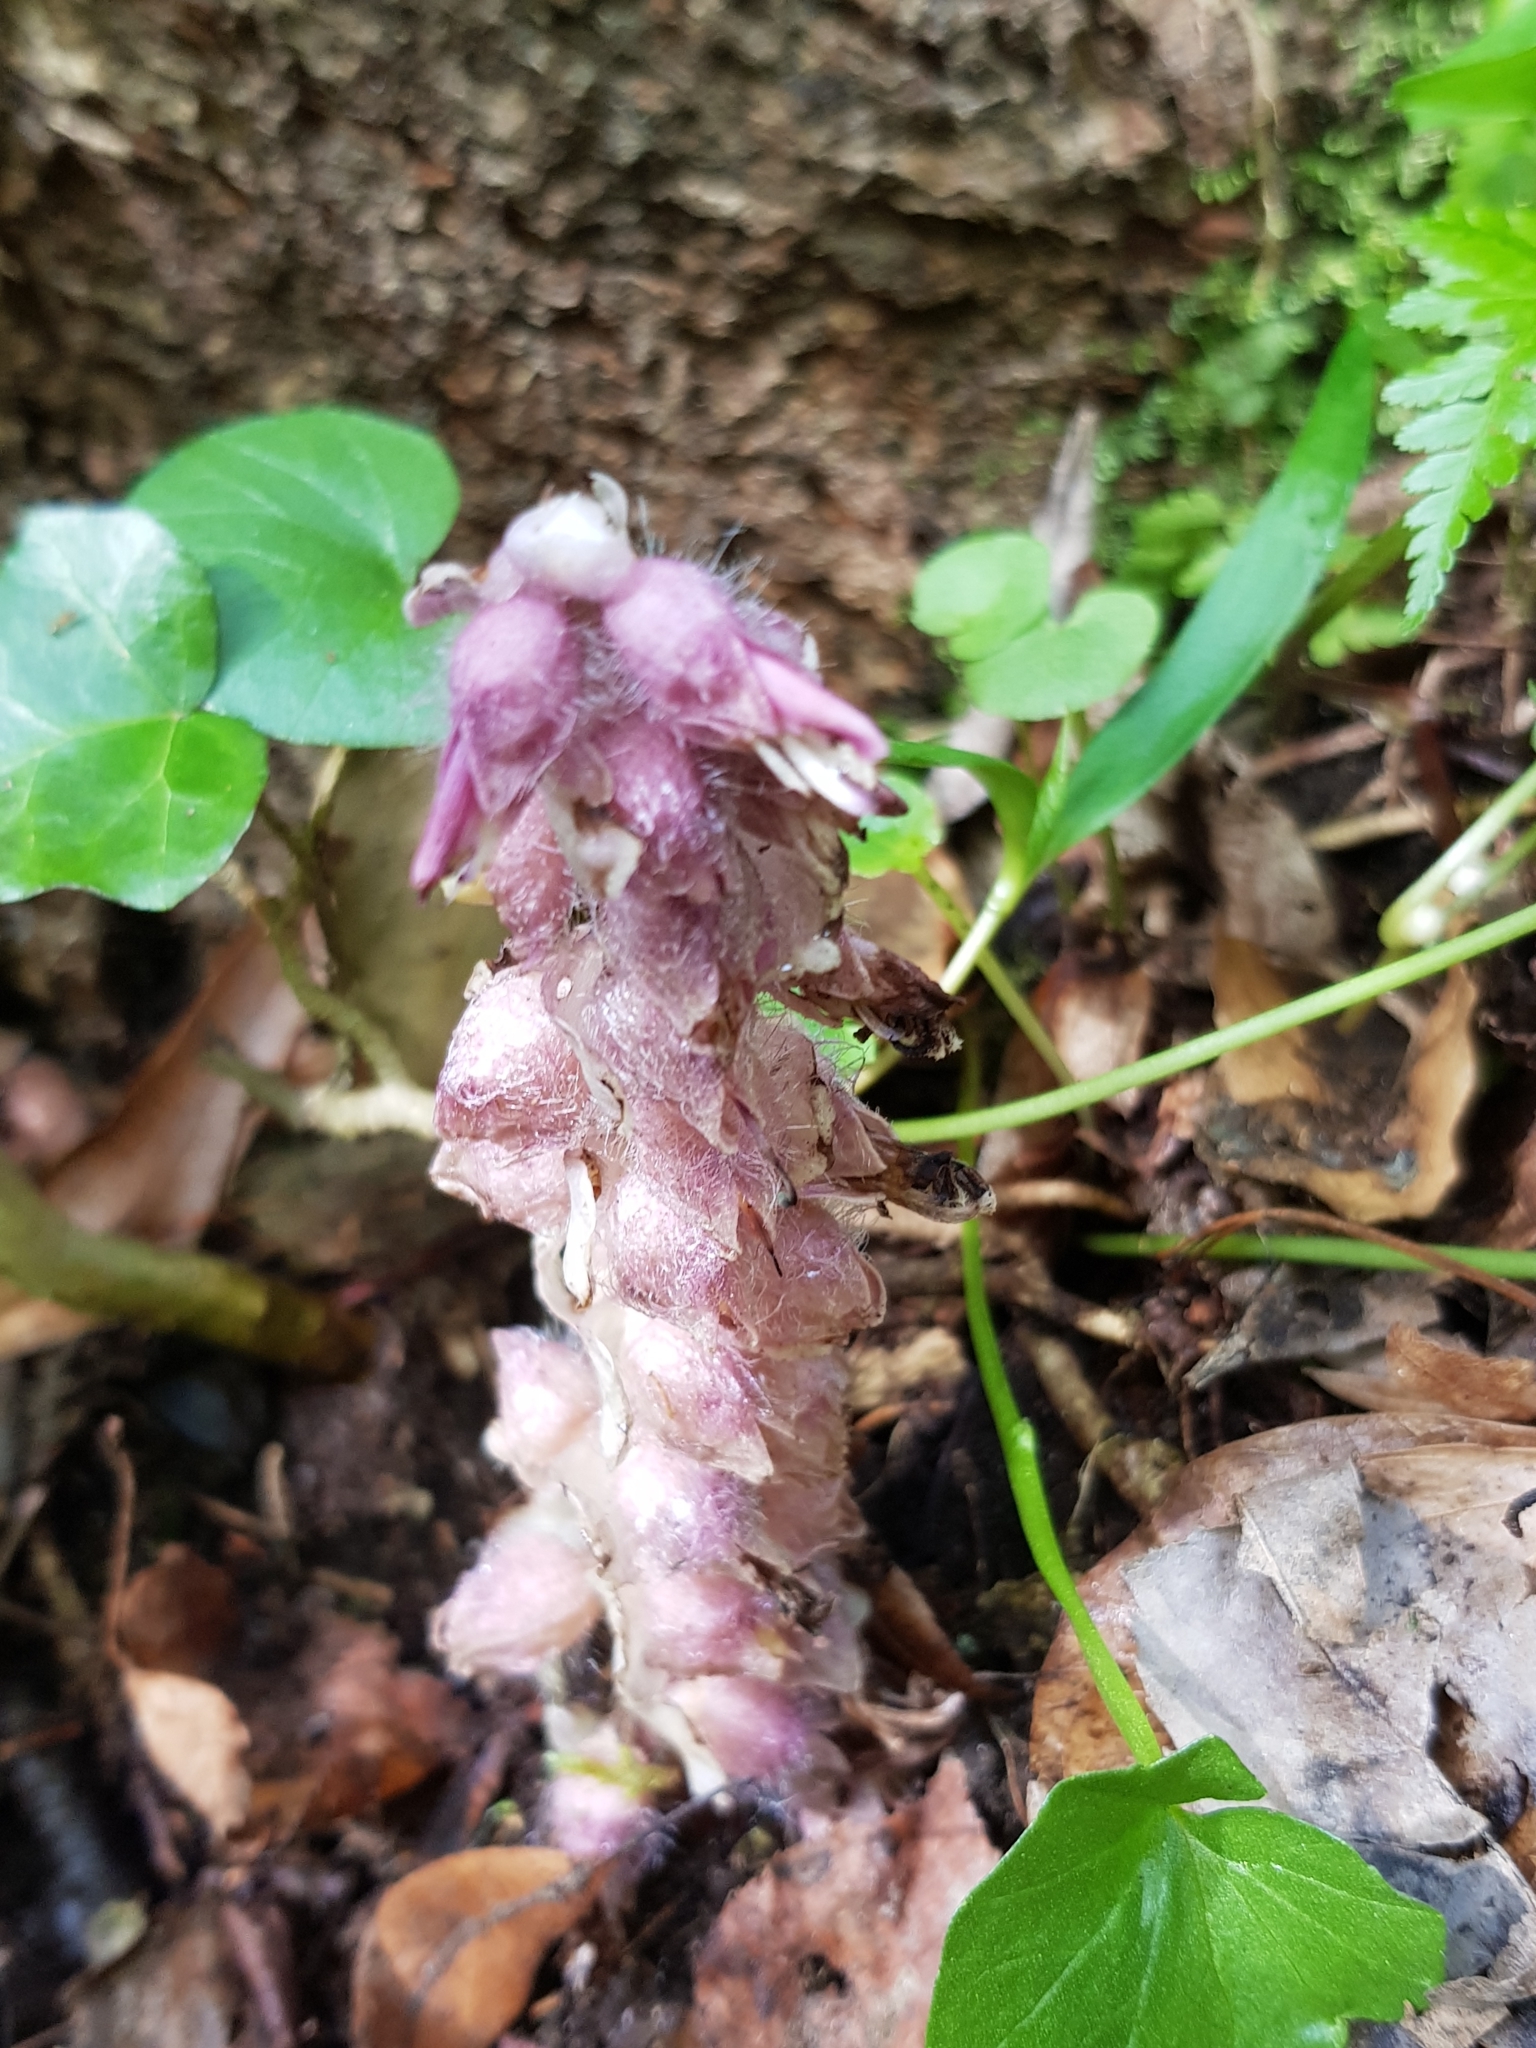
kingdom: Plantae
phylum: Tracheophyta
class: Magnoliopsida
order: Lamiales
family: Orobanchaceae
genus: Lathraea
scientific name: Lathraea squamaria
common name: Toothwort
